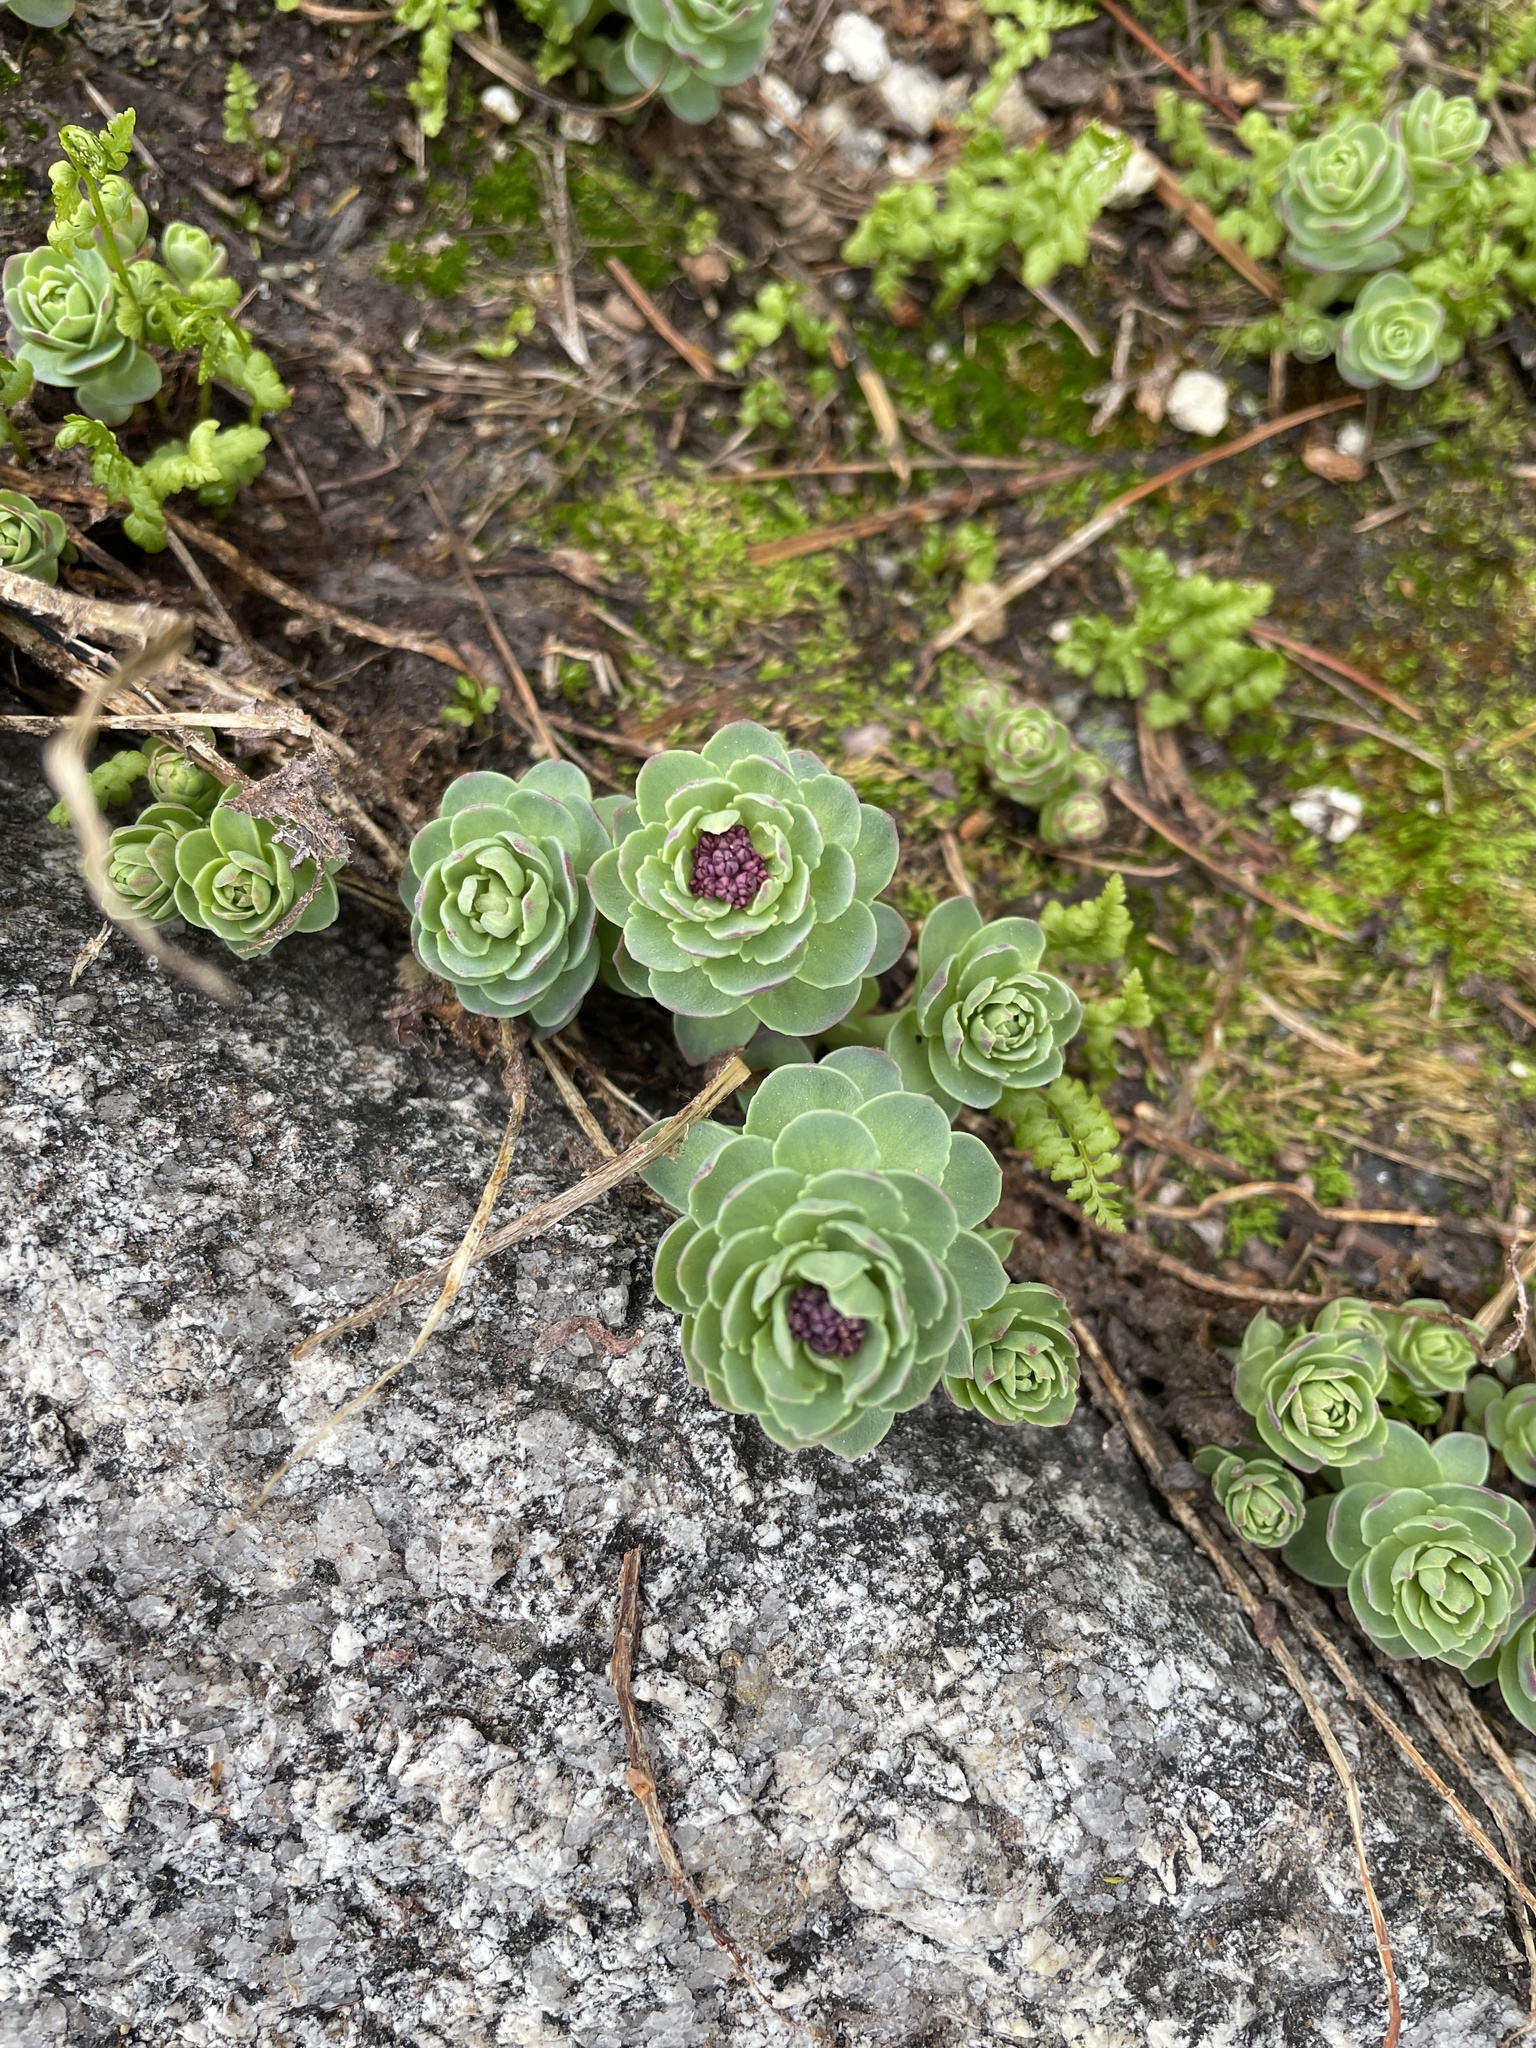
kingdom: Plantae
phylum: Tracheophyta
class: Magnoliopsida
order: Saxifragales
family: Crassulaceae
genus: Rhodiola
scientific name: Rhodiola integrifolia
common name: Western roseroot
